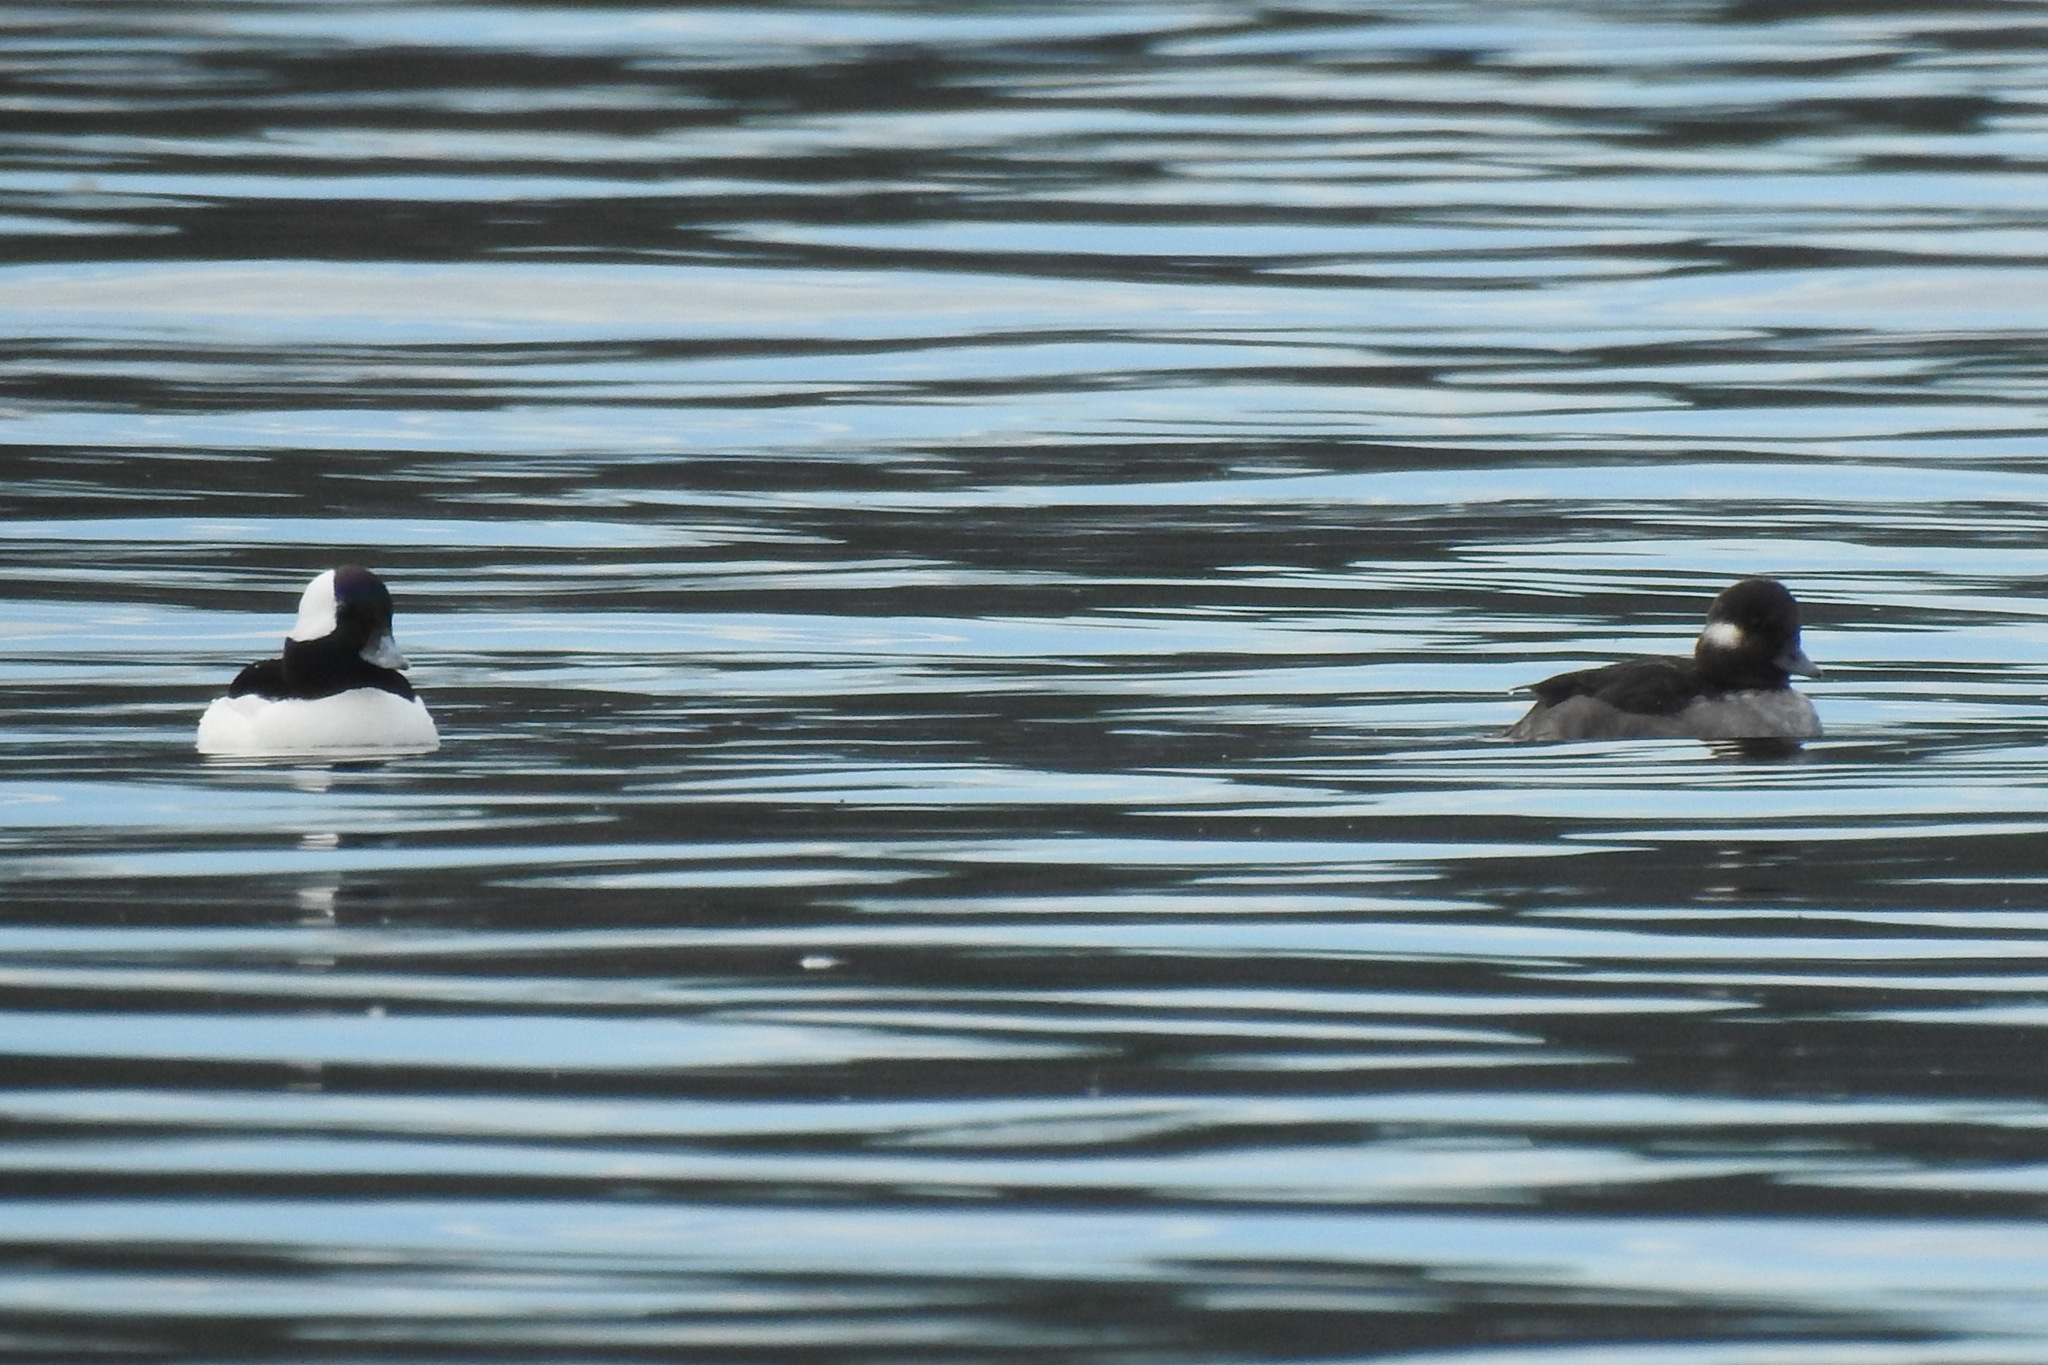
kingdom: Animalia
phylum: Chordata
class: Aves
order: Anseriformes
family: Anatidae
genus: Bucephala
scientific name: Bucephala albeola
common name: Bufflehead
